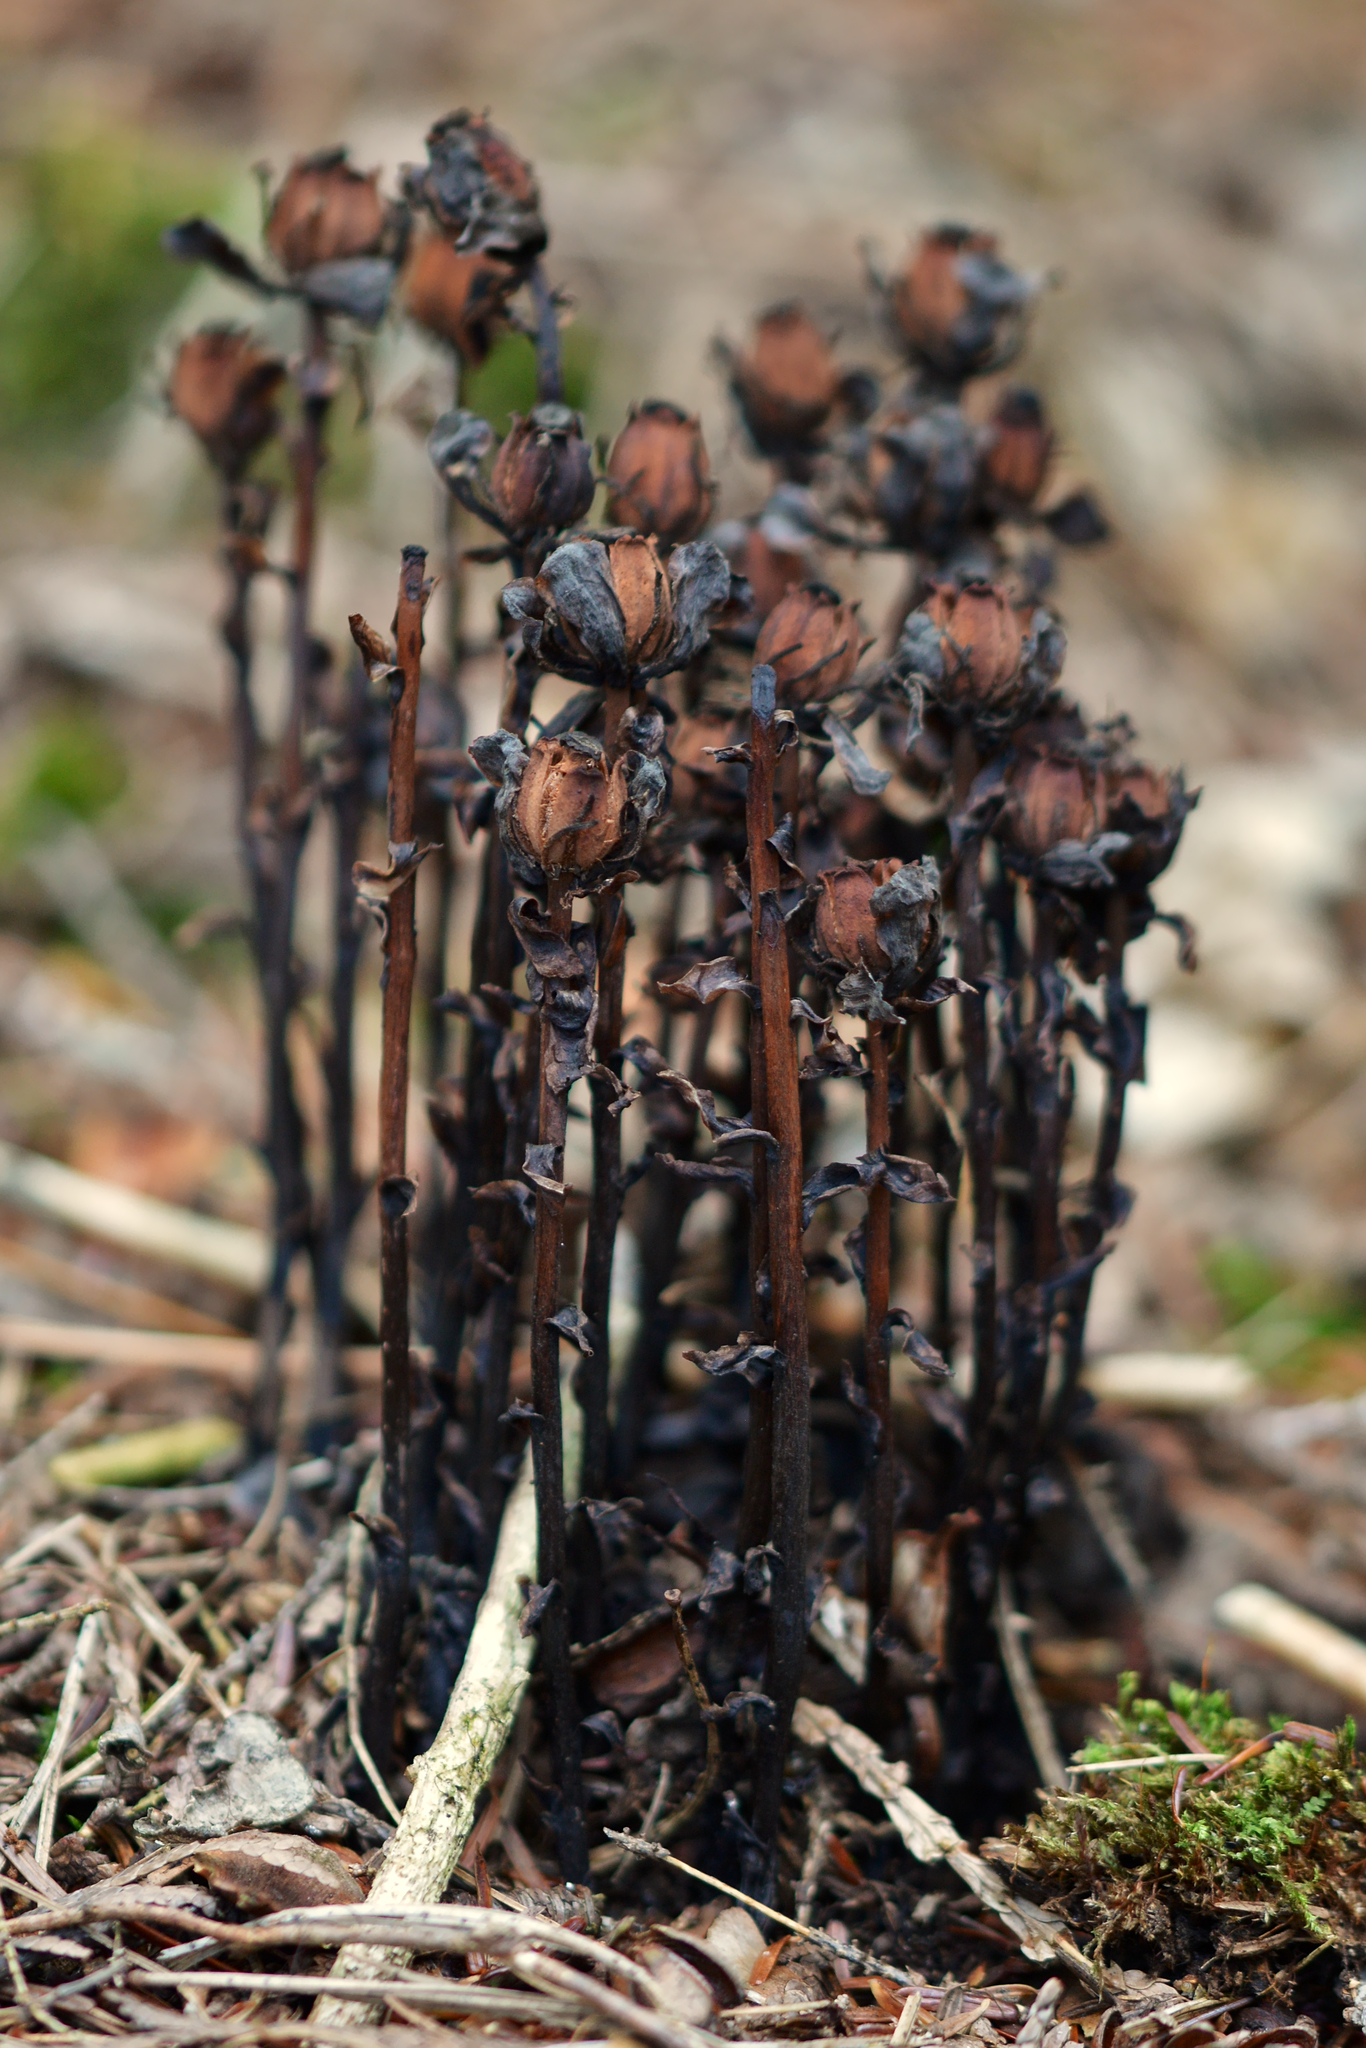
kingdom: Plantae
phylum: Tracheophyta
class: Magnoliopsida
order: Ericales
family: Ericaceae
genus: Monotropa
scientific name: Monotropa uniflora
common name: Convulsion root
